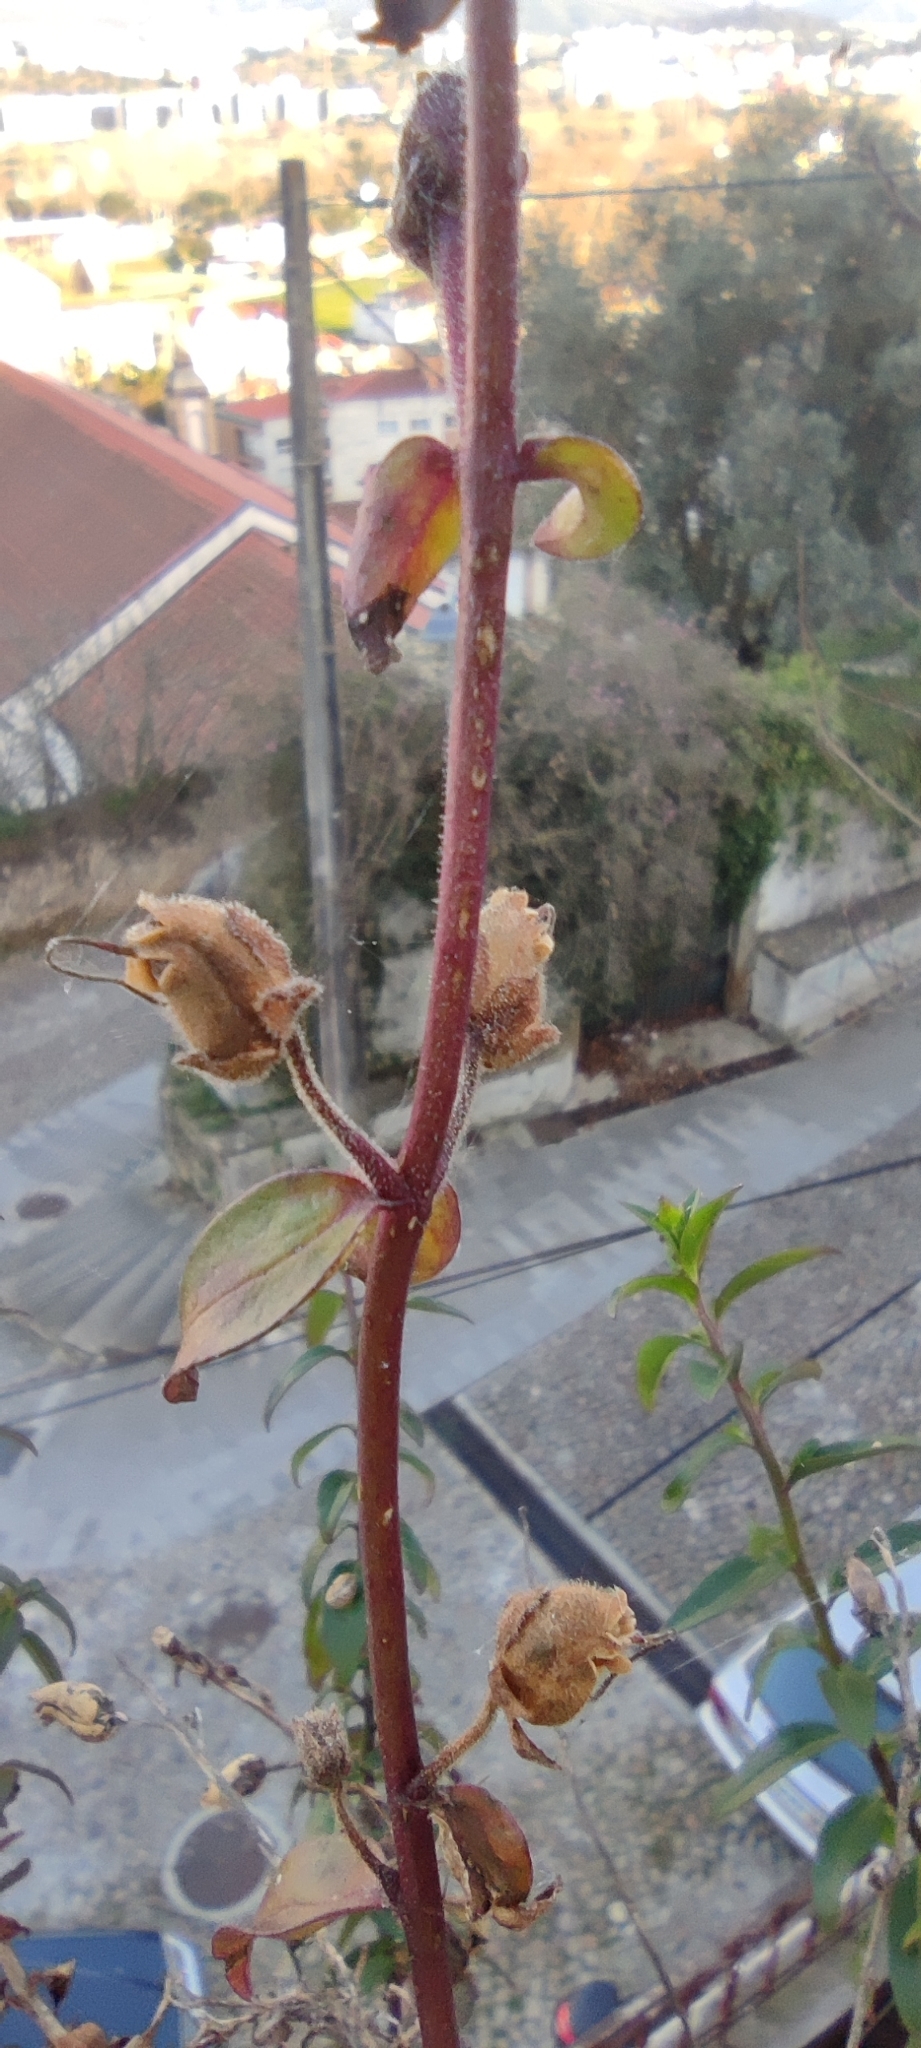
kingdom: Plantae
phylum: Tracheophyta
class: Magnoliopsida
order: Lamiales
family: Plantaginaceae
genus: Antirrhinum
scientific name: Antirrhinum linkianum
